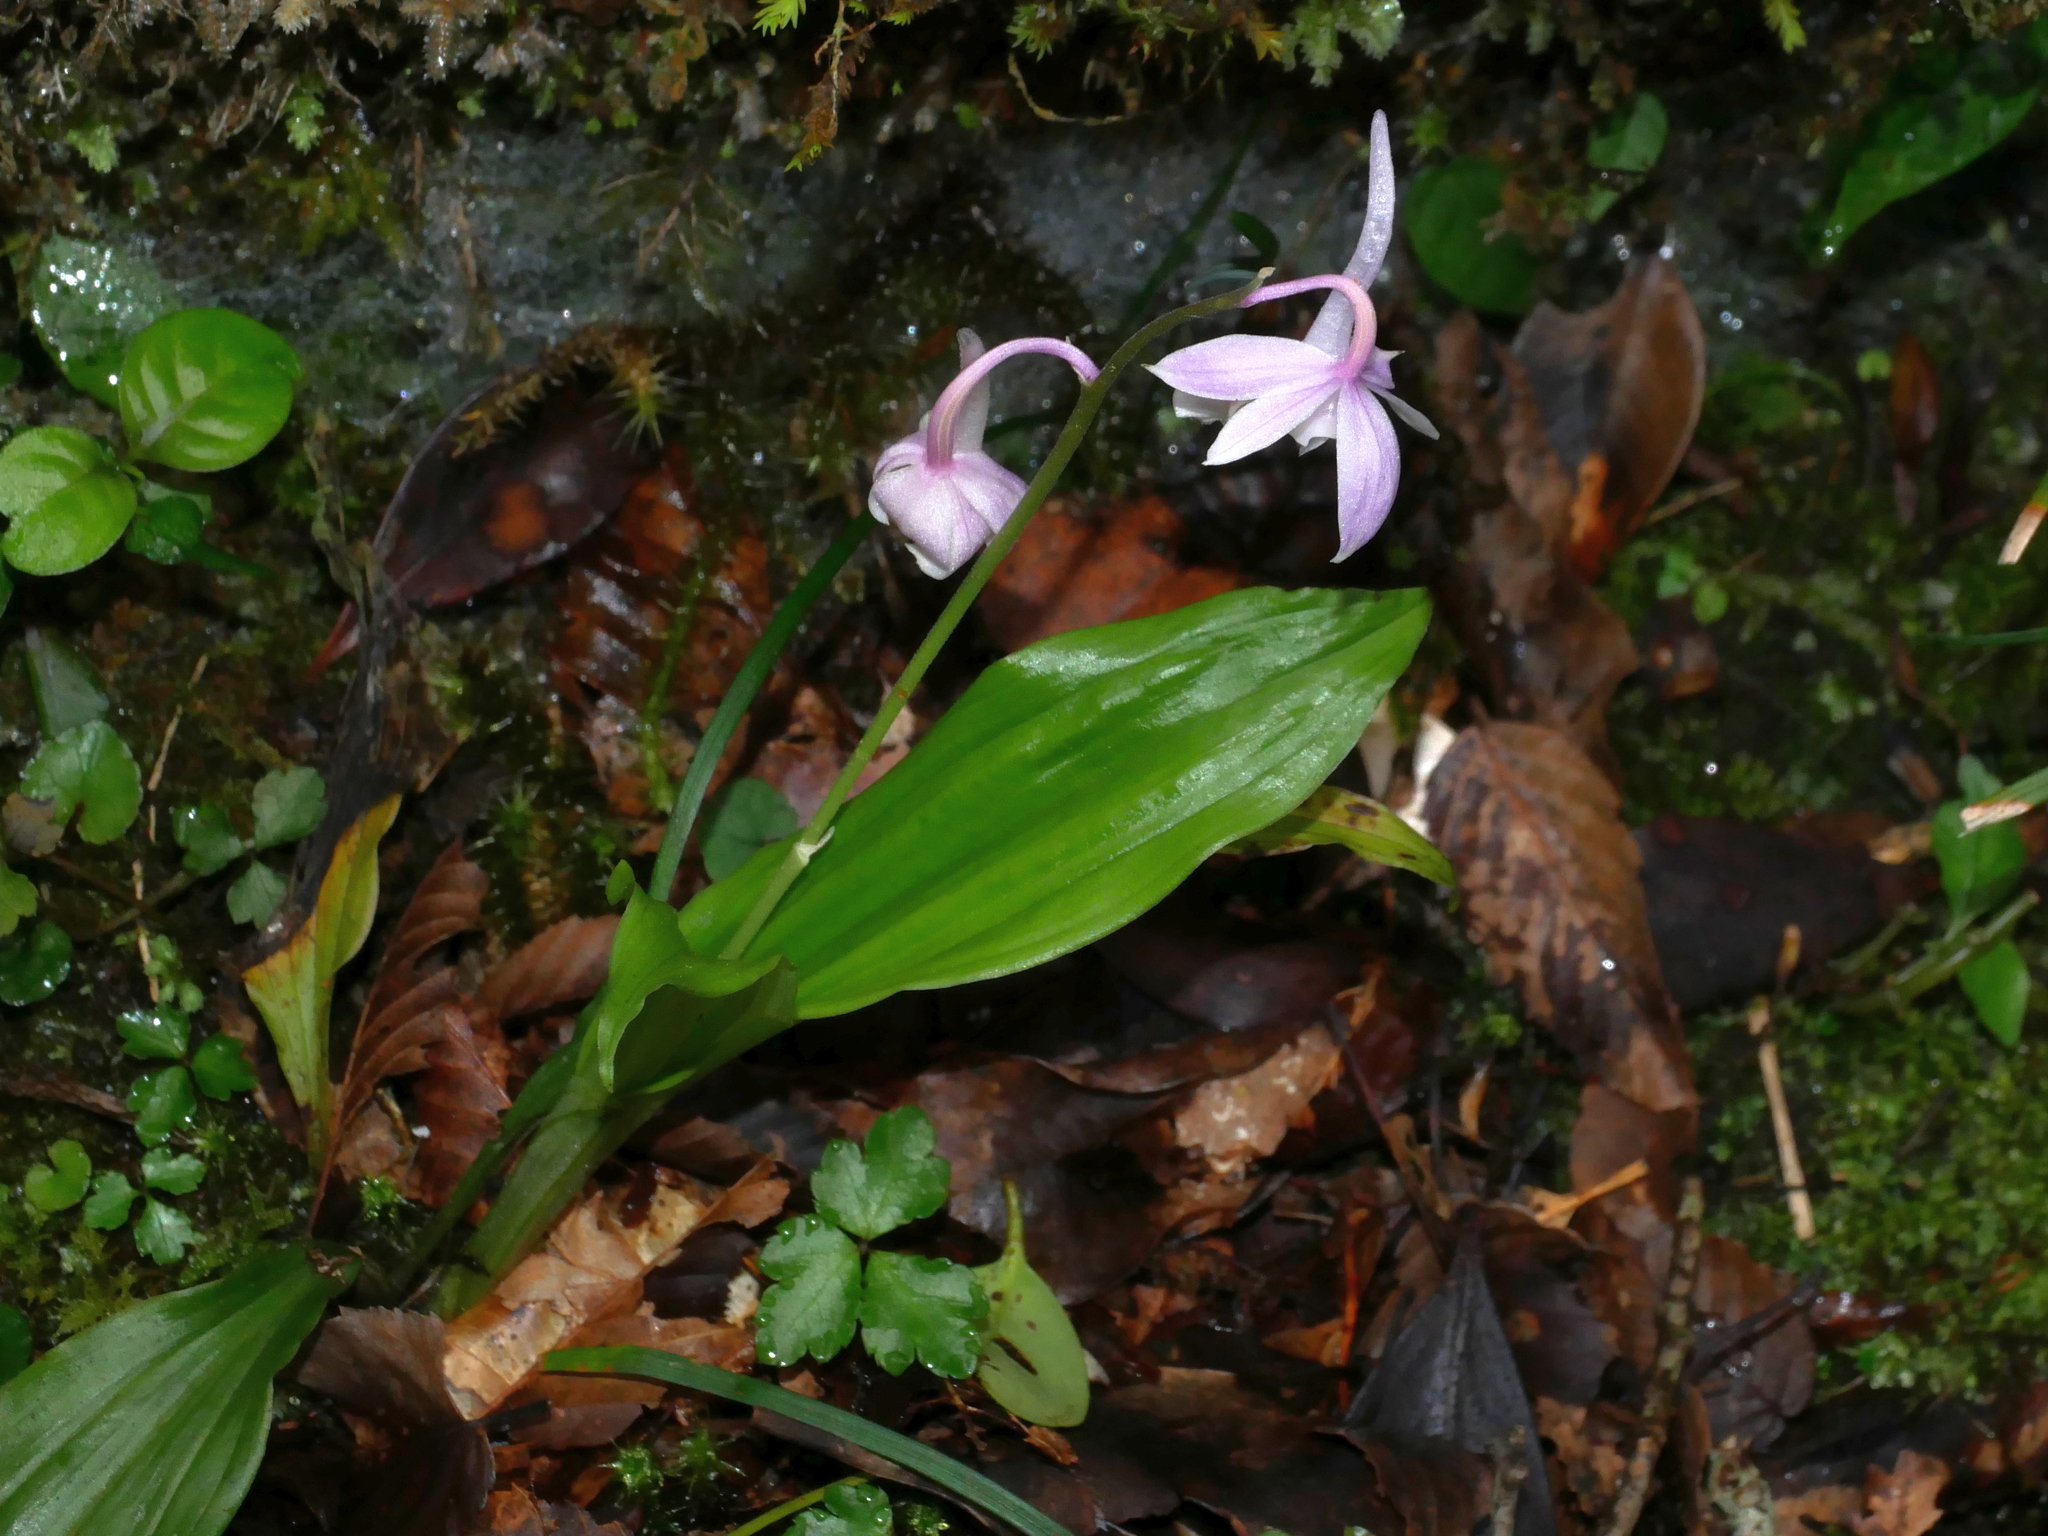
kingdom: Plantae
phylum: Tracheophyta
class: Liliopsida
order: Asparagales
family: Orchidaceae
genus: Calanthe
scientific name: Calanthe aristulifera
